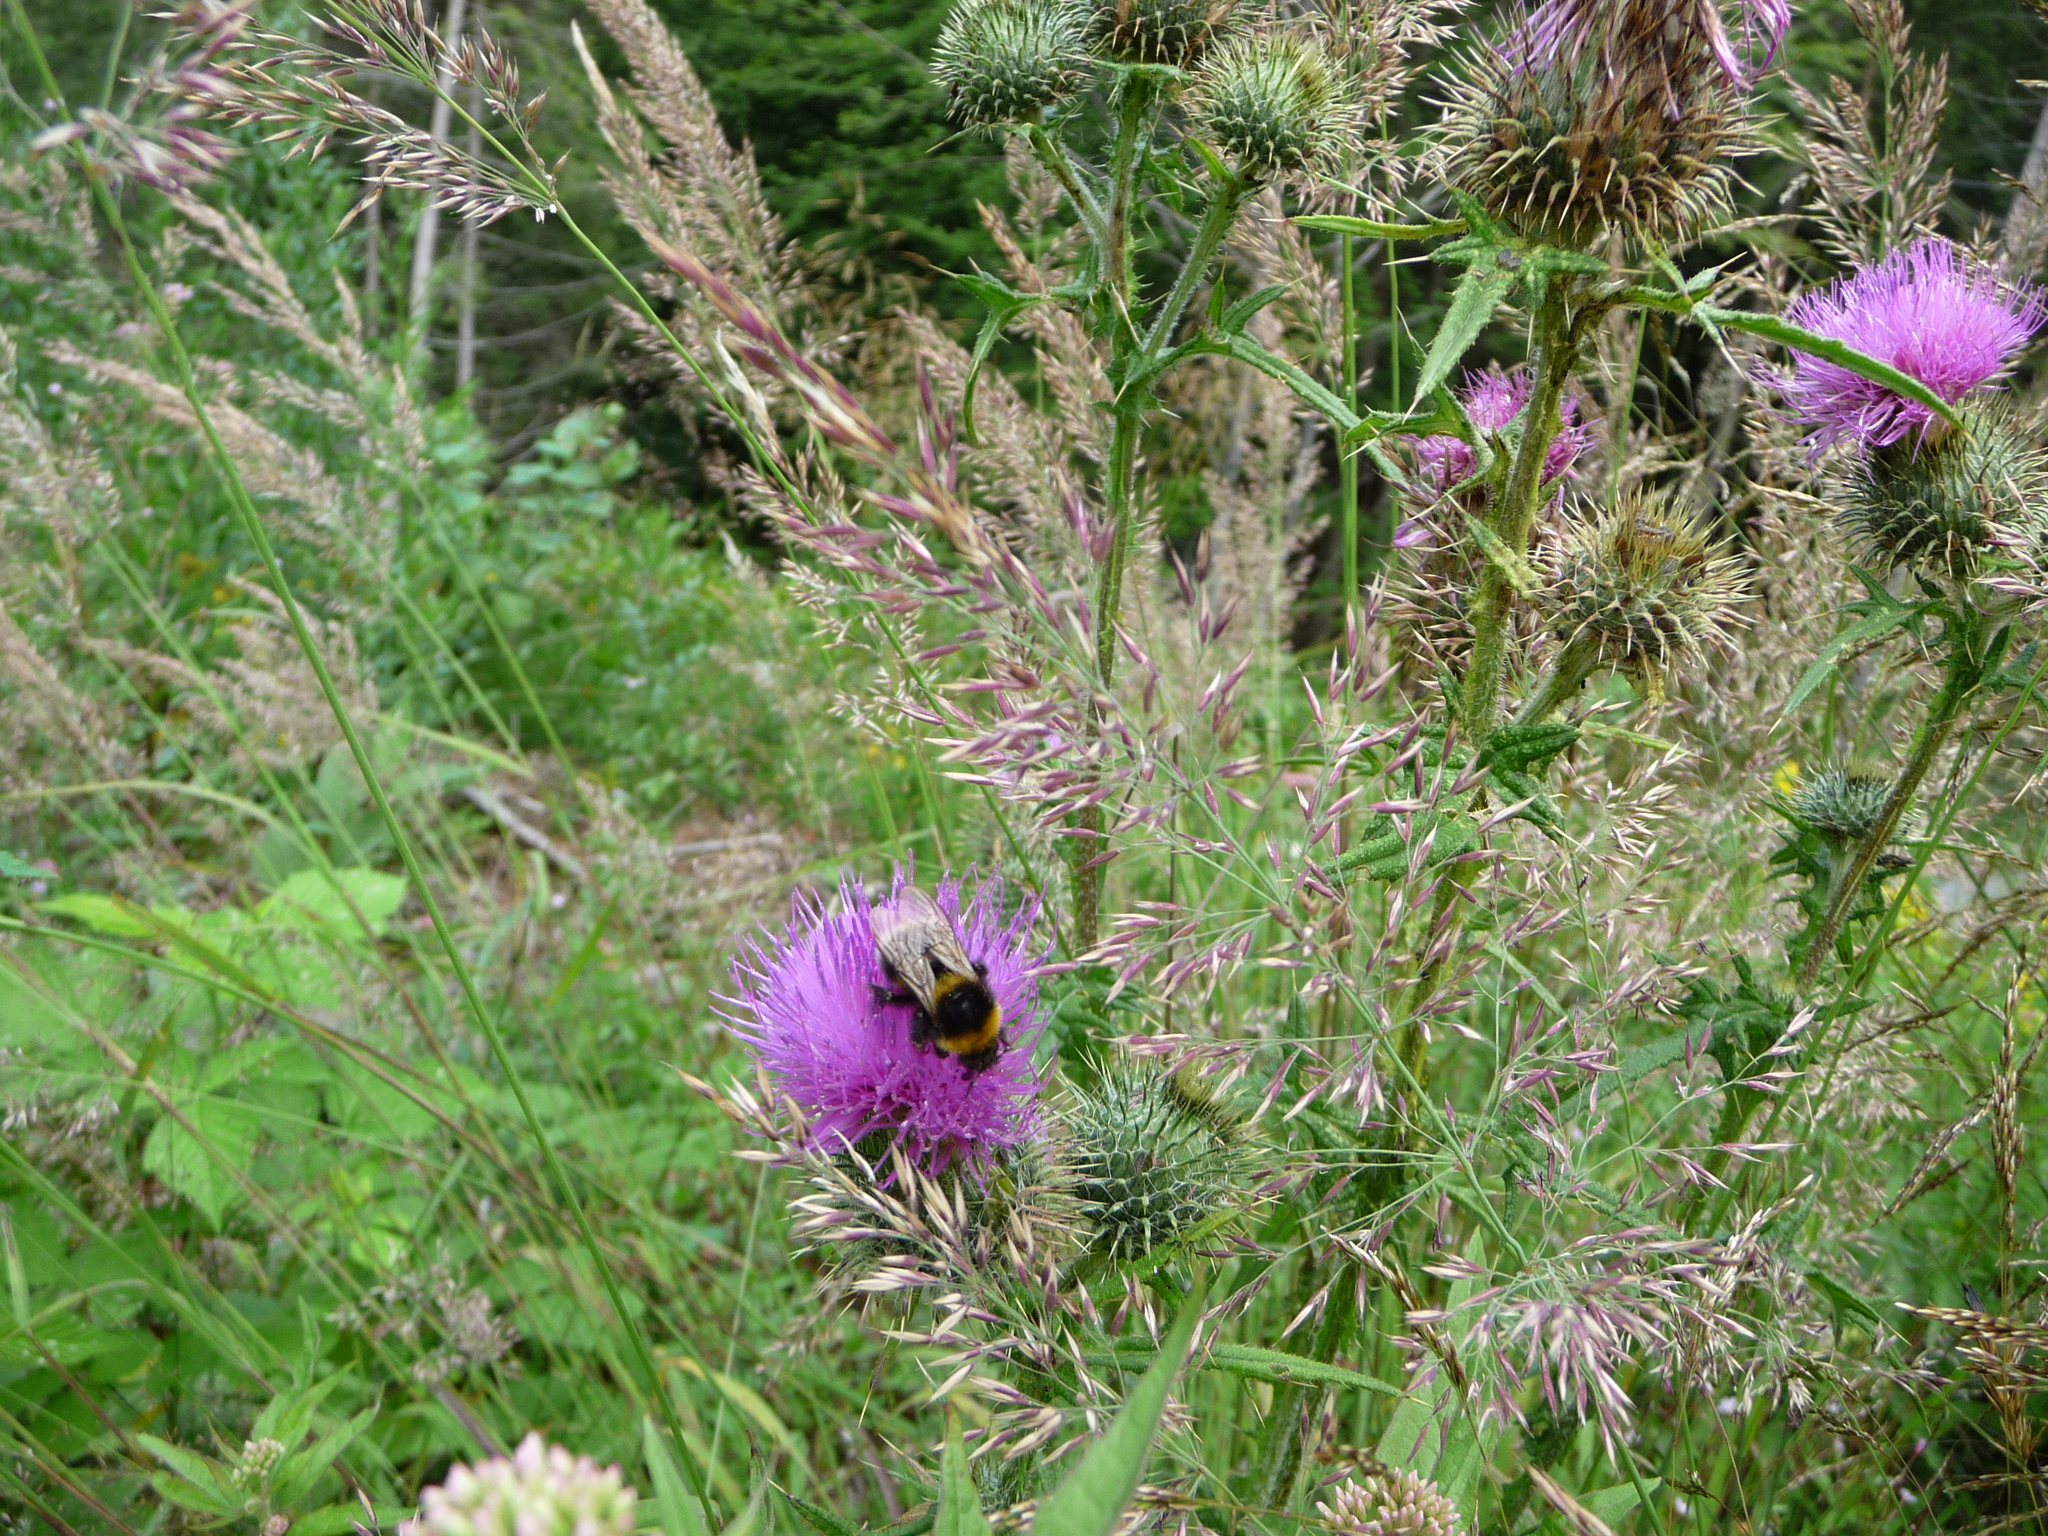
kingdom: Animalia
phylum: Arthropoda
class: Insecta
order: Hymenoptera
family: Apidae
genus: Bombus
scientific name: Bombus hortorum
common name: Garden bumblebee
